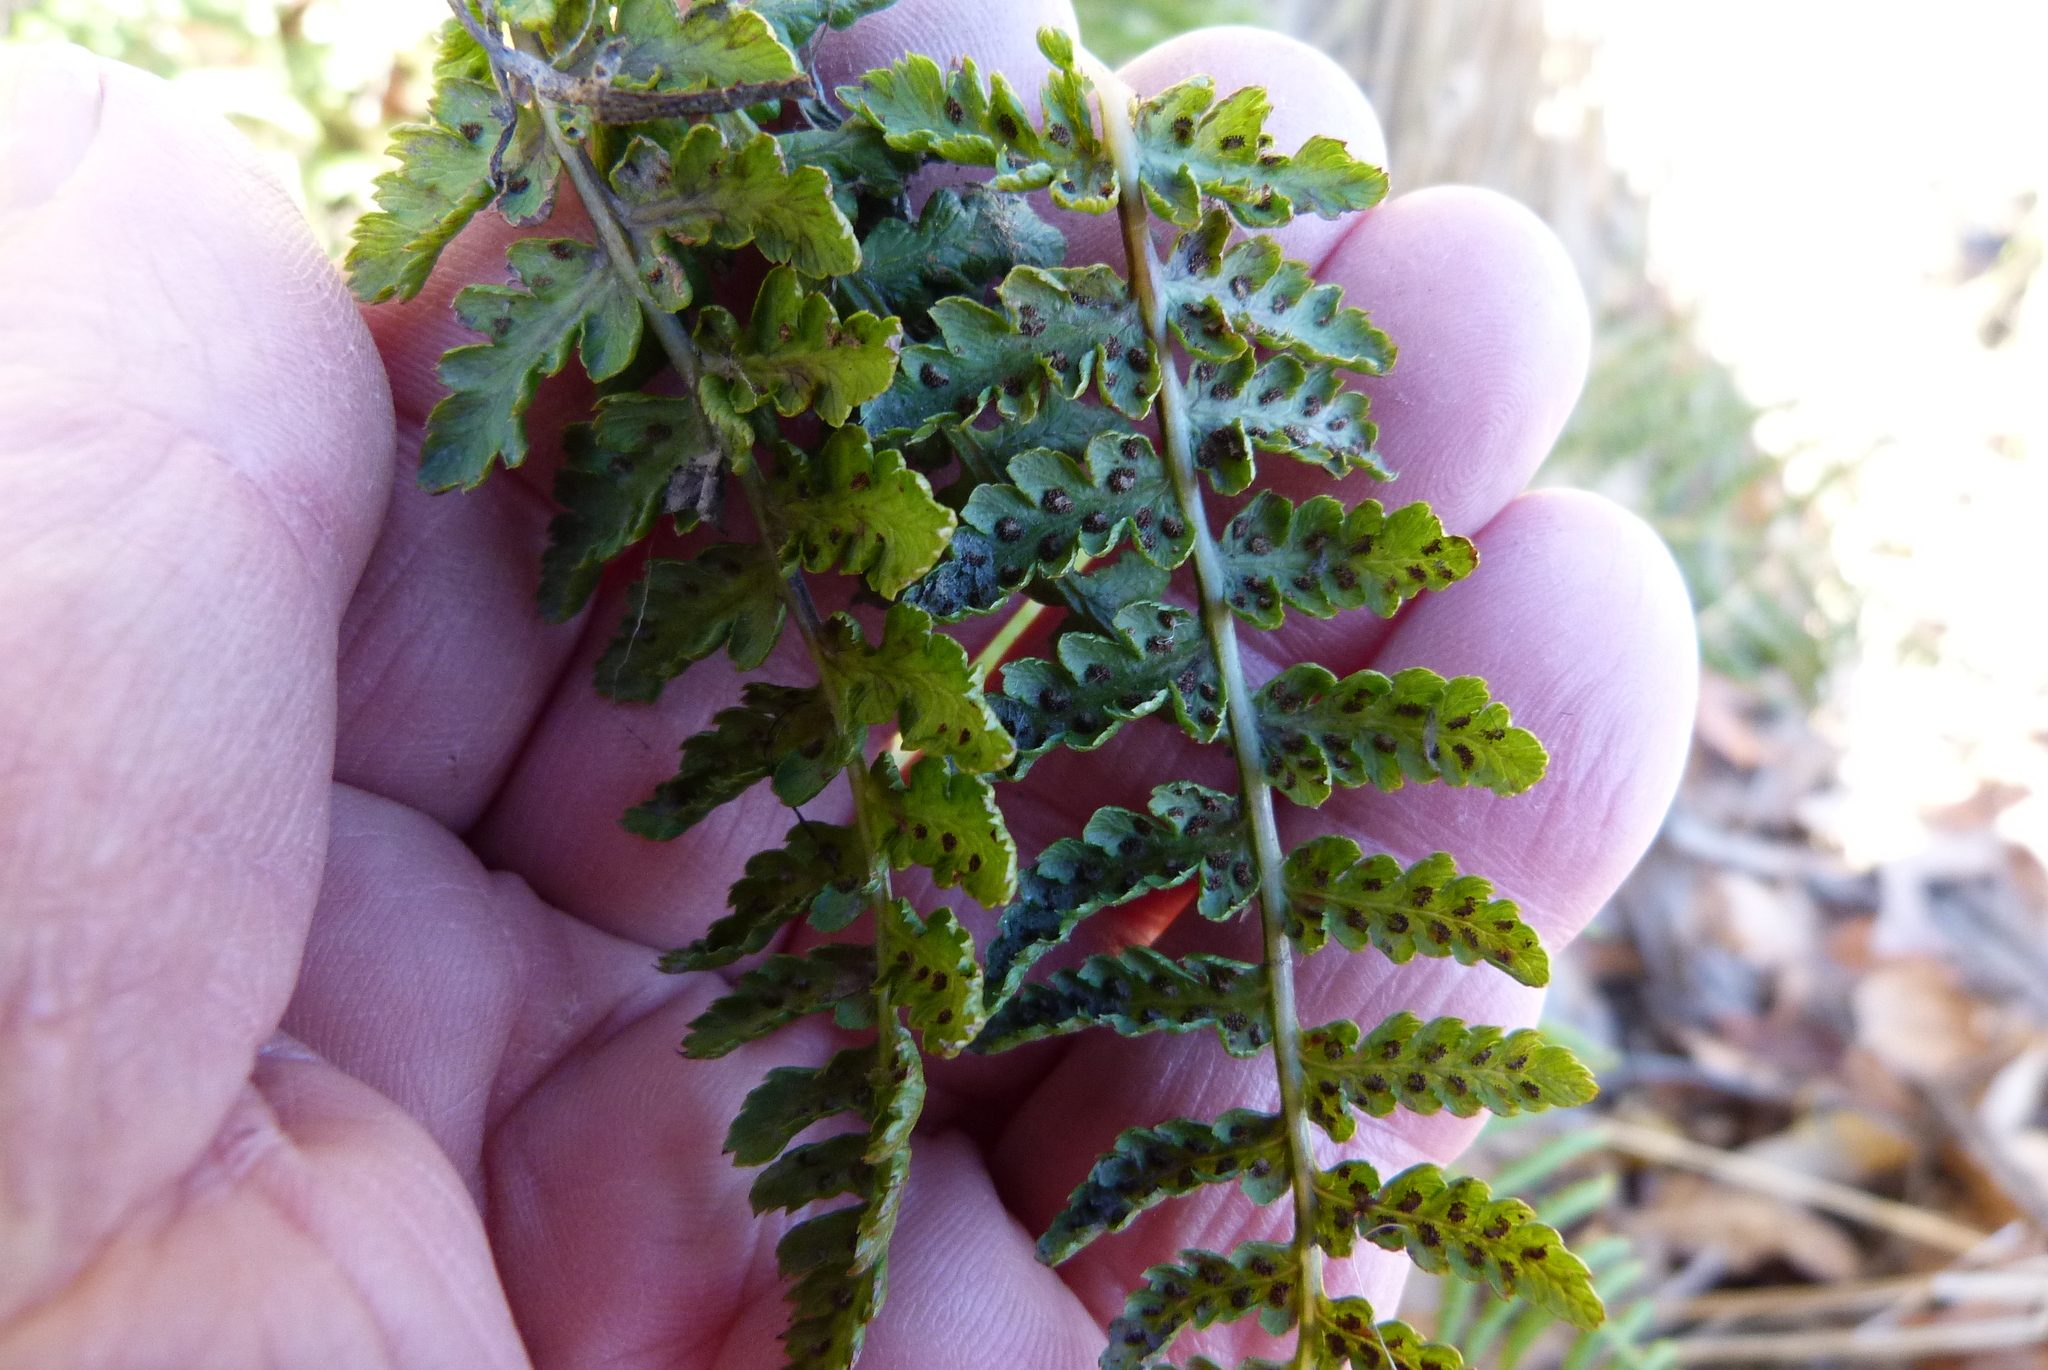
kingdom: Plantae
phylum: Tracheophyta
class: Polypodiopsida
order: Polypodiales
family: Athyriaceae
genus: Athyrium
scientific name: Athyrium filix-femina
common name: Lady fern
